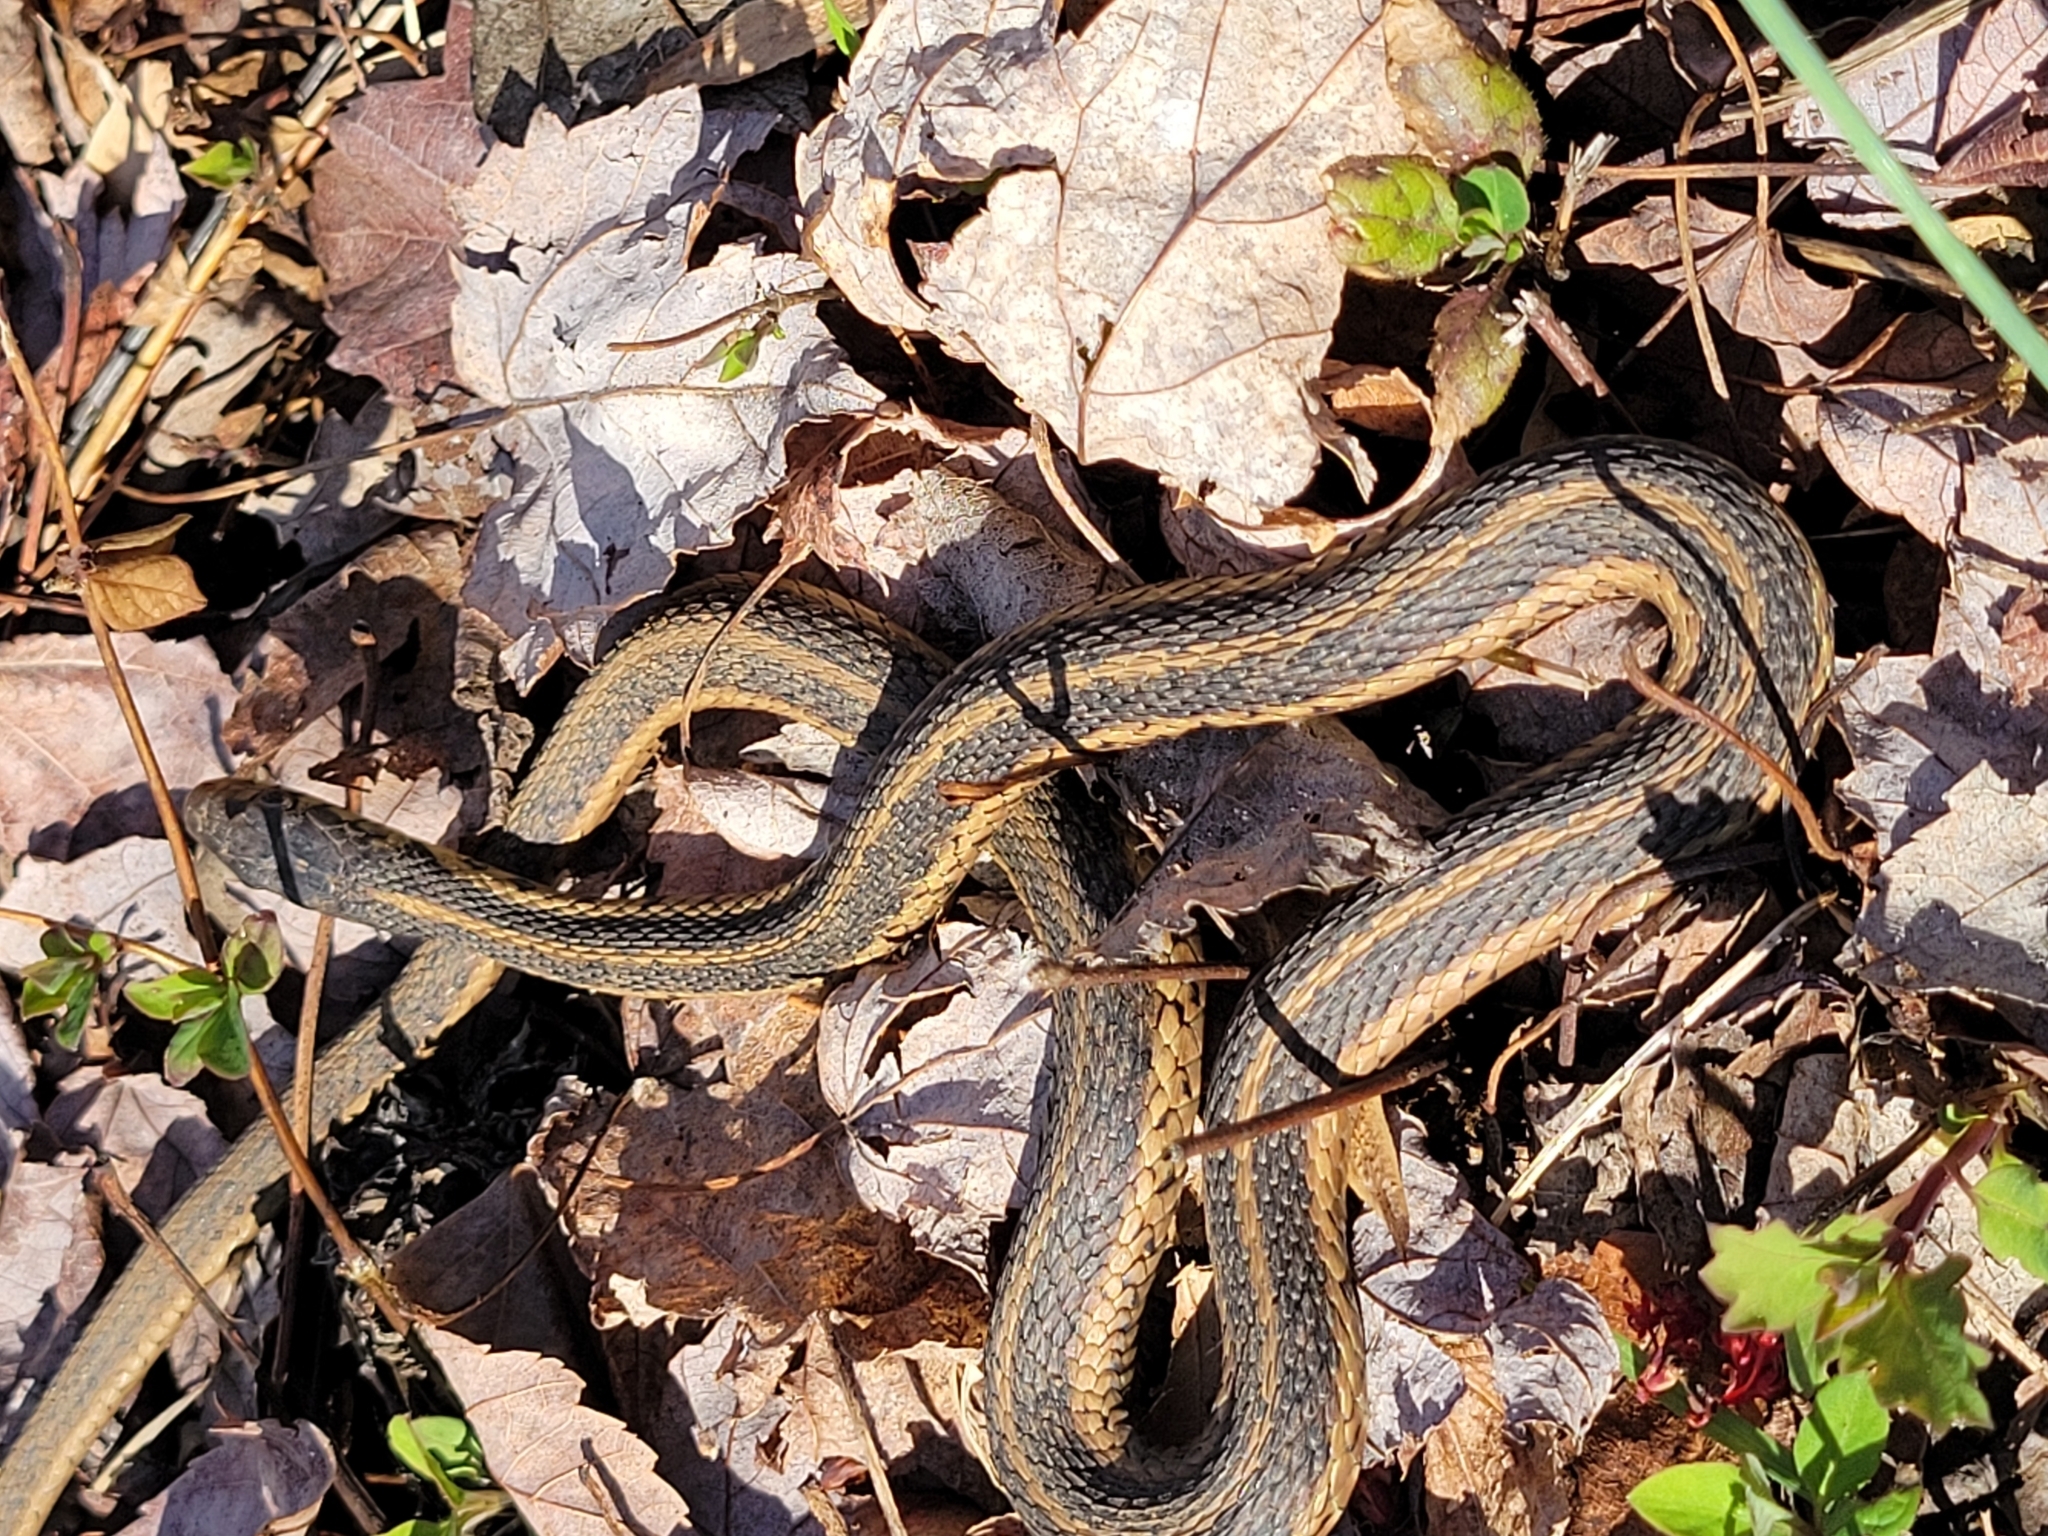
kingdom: Animalia
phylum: Chordata
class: Squamata
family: Colubridae
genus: Thamnophis
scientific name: Thamnophis sirtalis
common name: Common garter snake
